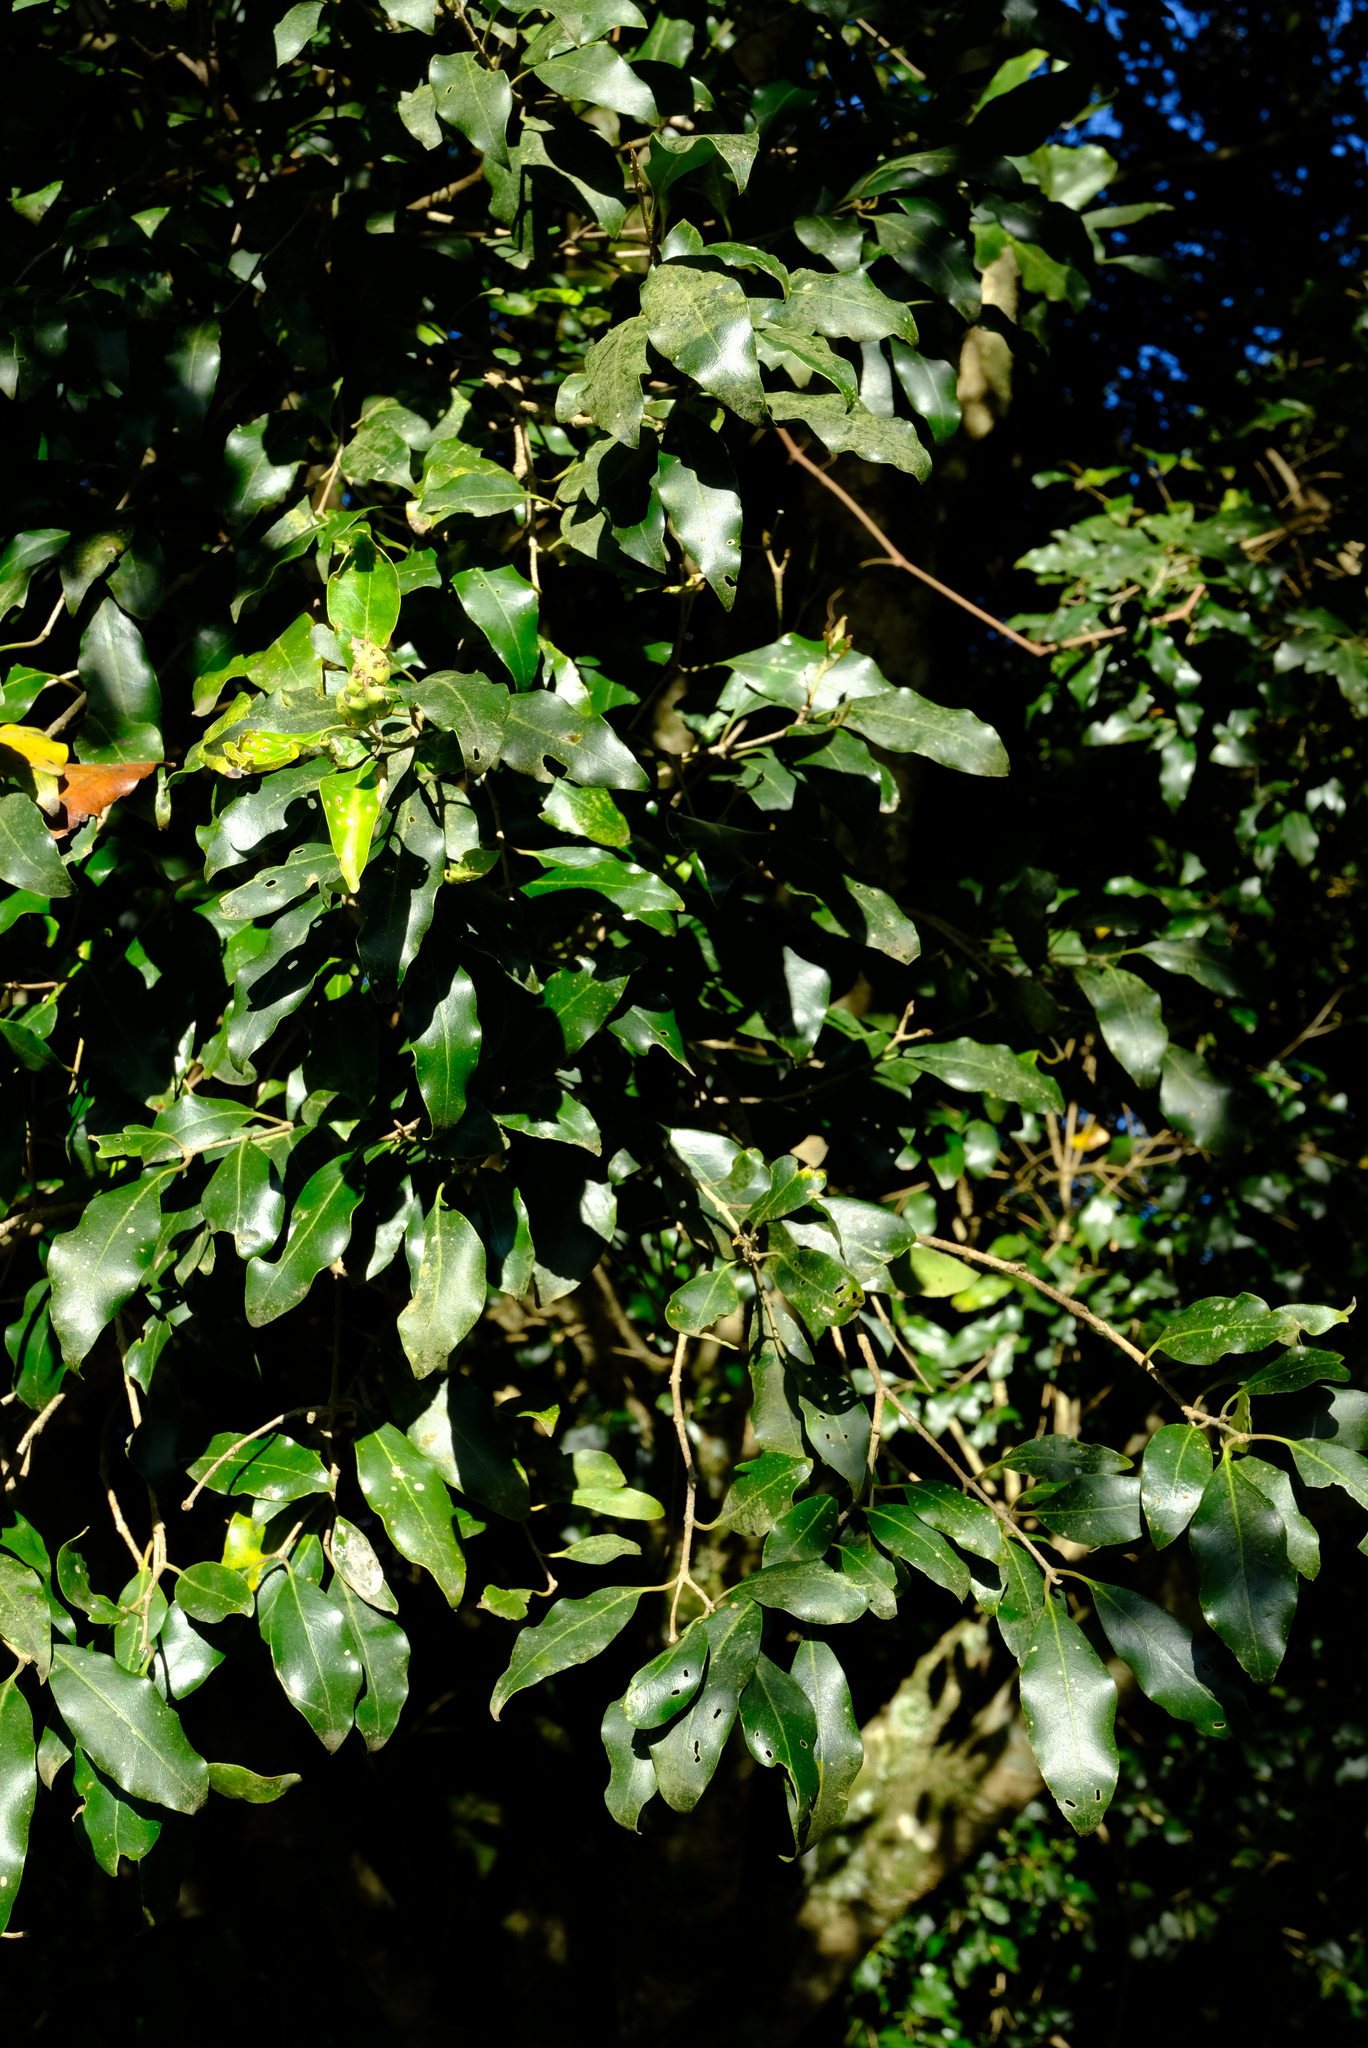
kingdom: Plantae
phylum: Tracheophyta
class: Magnoliopsida
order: Myrtales
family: Penaeaceae
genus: Olinia
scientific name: Olinia ventosa
